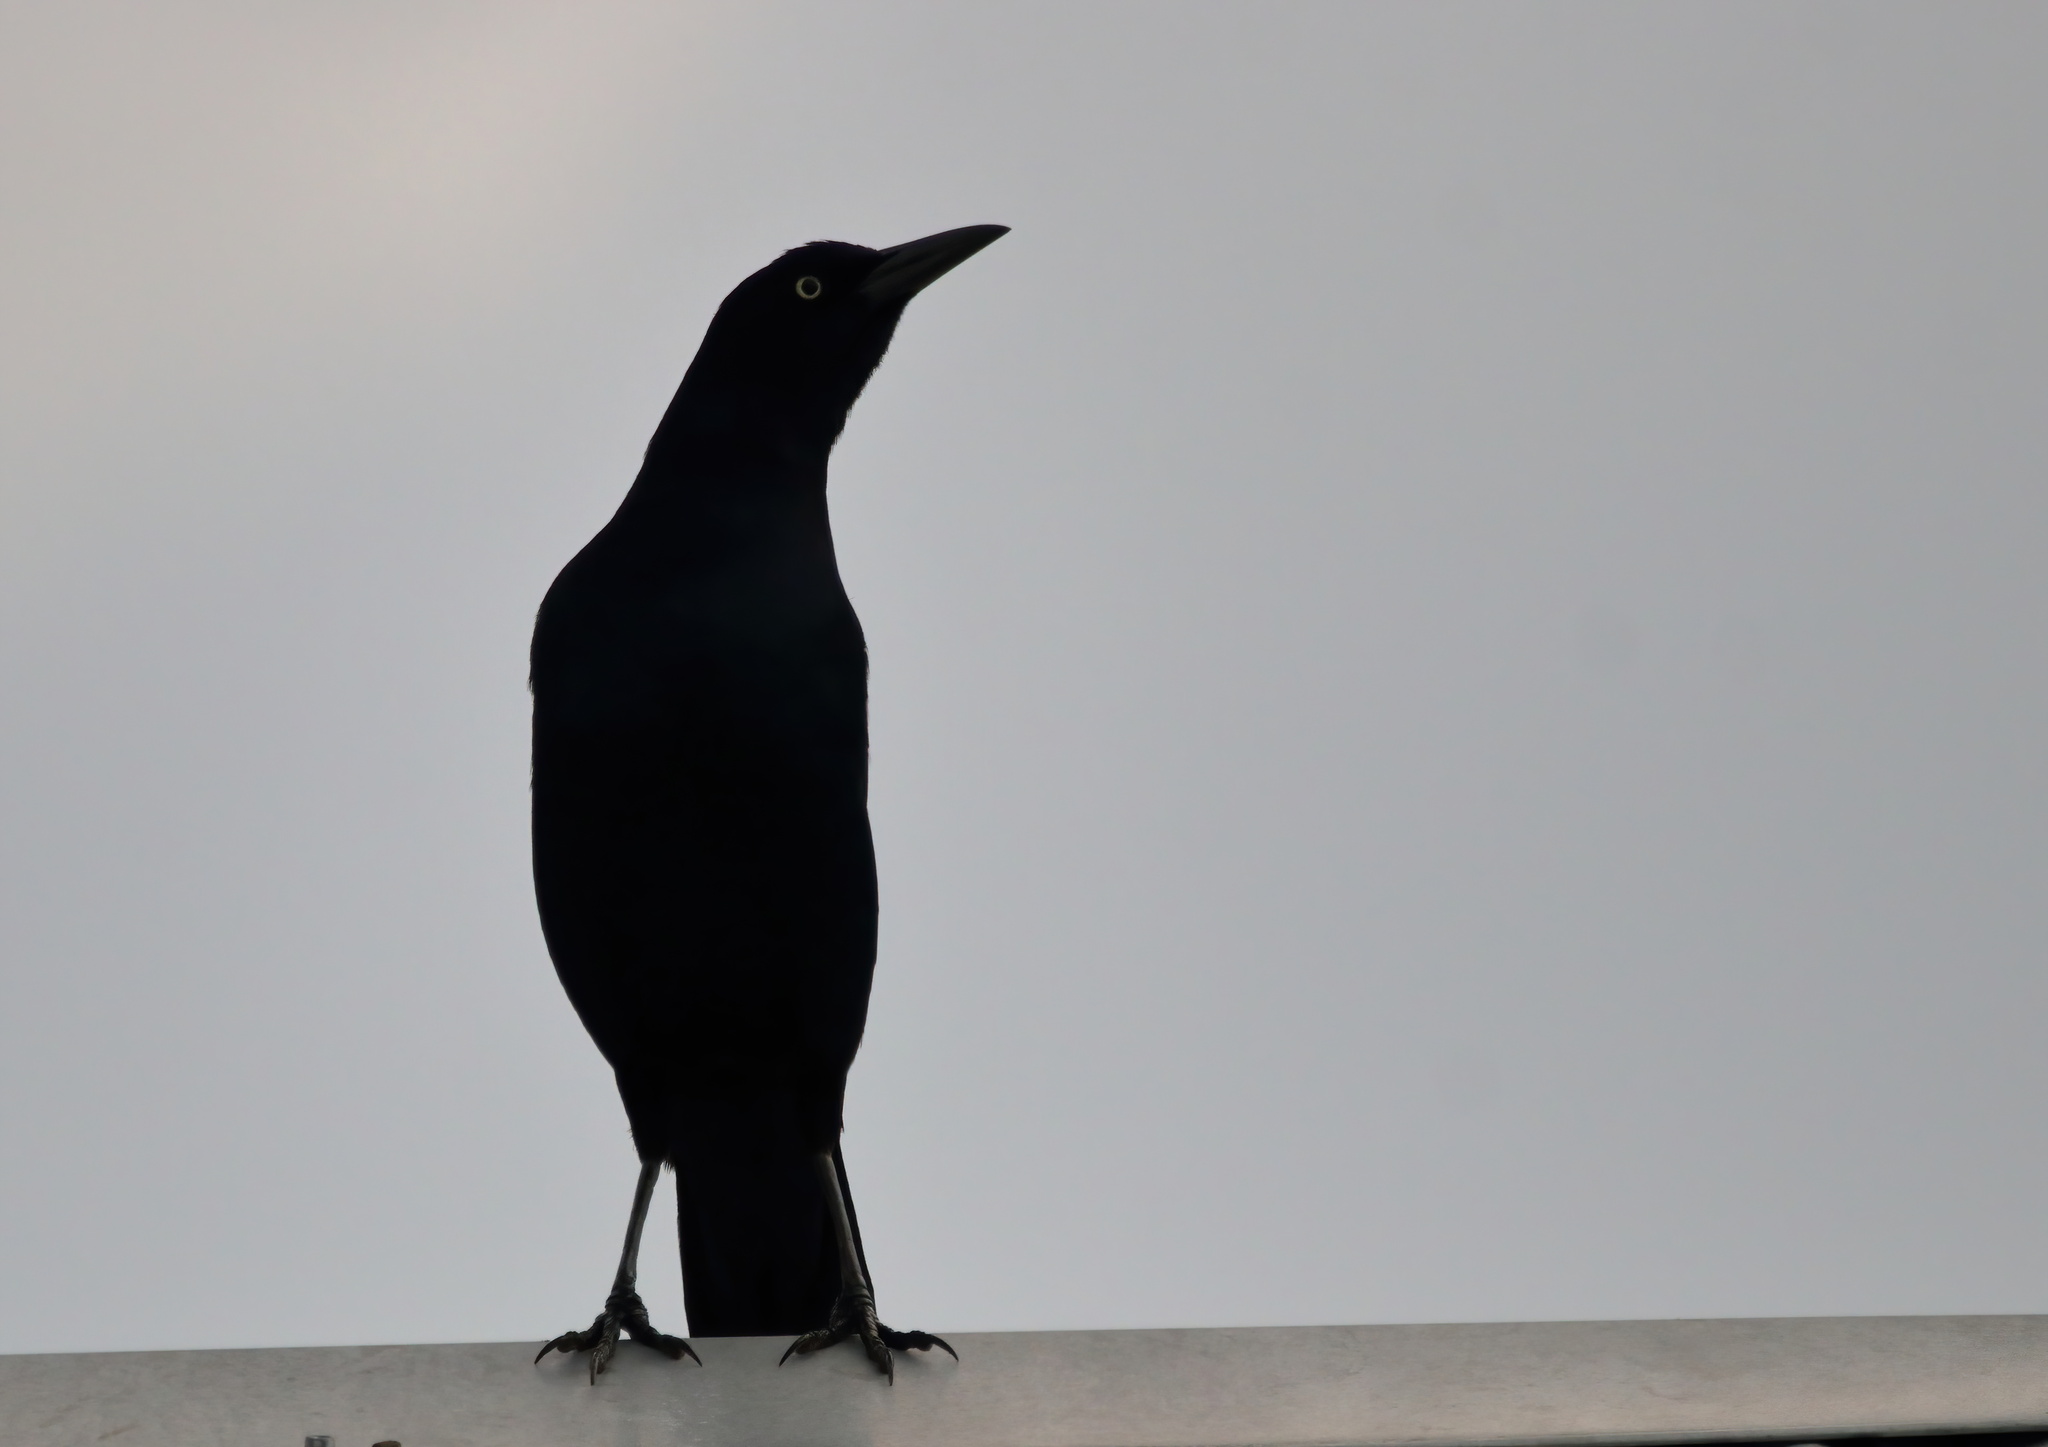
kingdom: Animalia
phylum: Chordata
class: Aves
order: Passeriformes
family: Icteridae
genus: Quiscalus
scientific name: Quiscalus major
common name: Boat-tailed grackle
